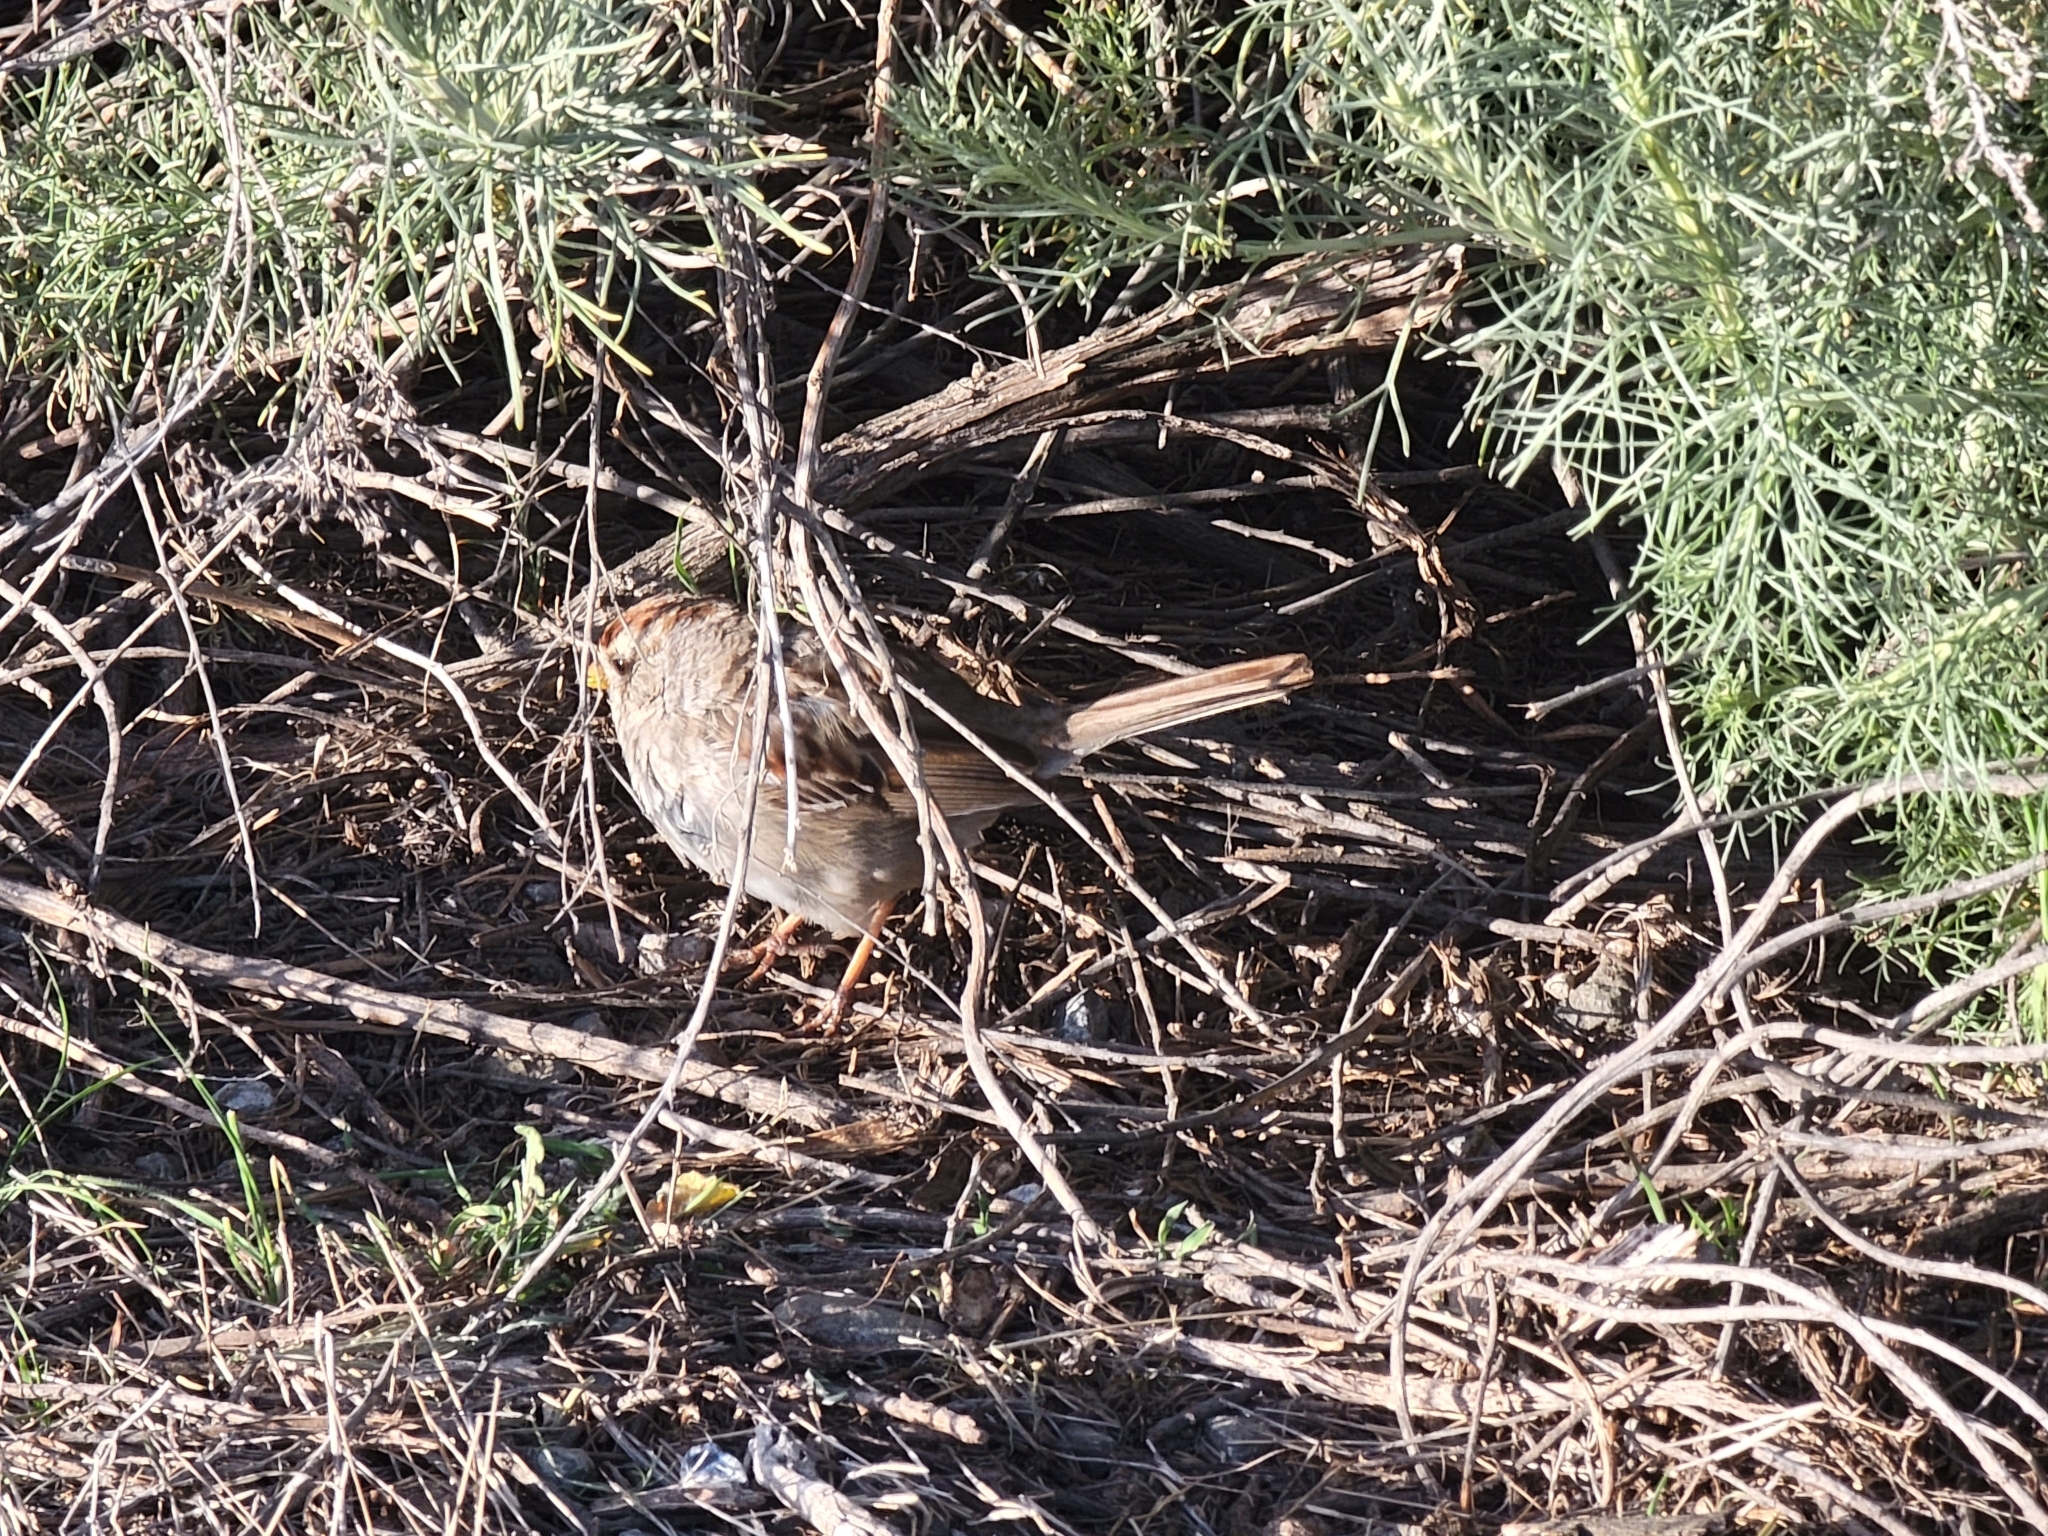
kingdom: Animalia
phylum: Chordata
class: Aves
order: Passeriformes
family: Passerellidae
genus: Zonotrichia
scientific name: Zonotrichia leucophrys
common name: White-crowned sparrow
